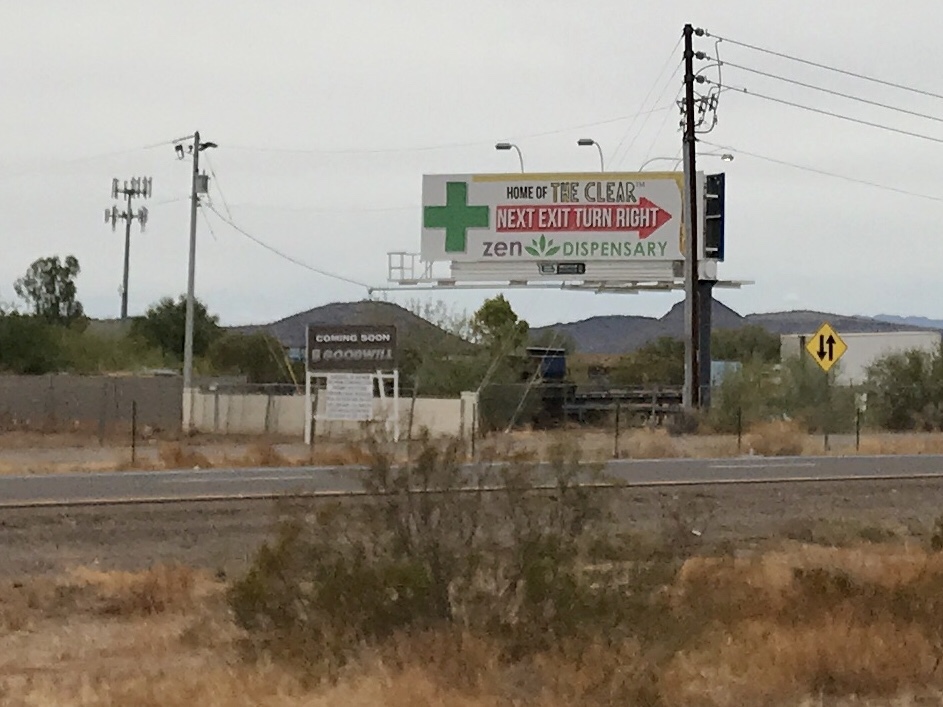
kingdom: Plantae
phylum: Tracheophyta
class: Magnoliopsida
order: Zygophyllales
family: Zygophyllaceae
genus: Larrea
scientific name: Larrea tridentata
